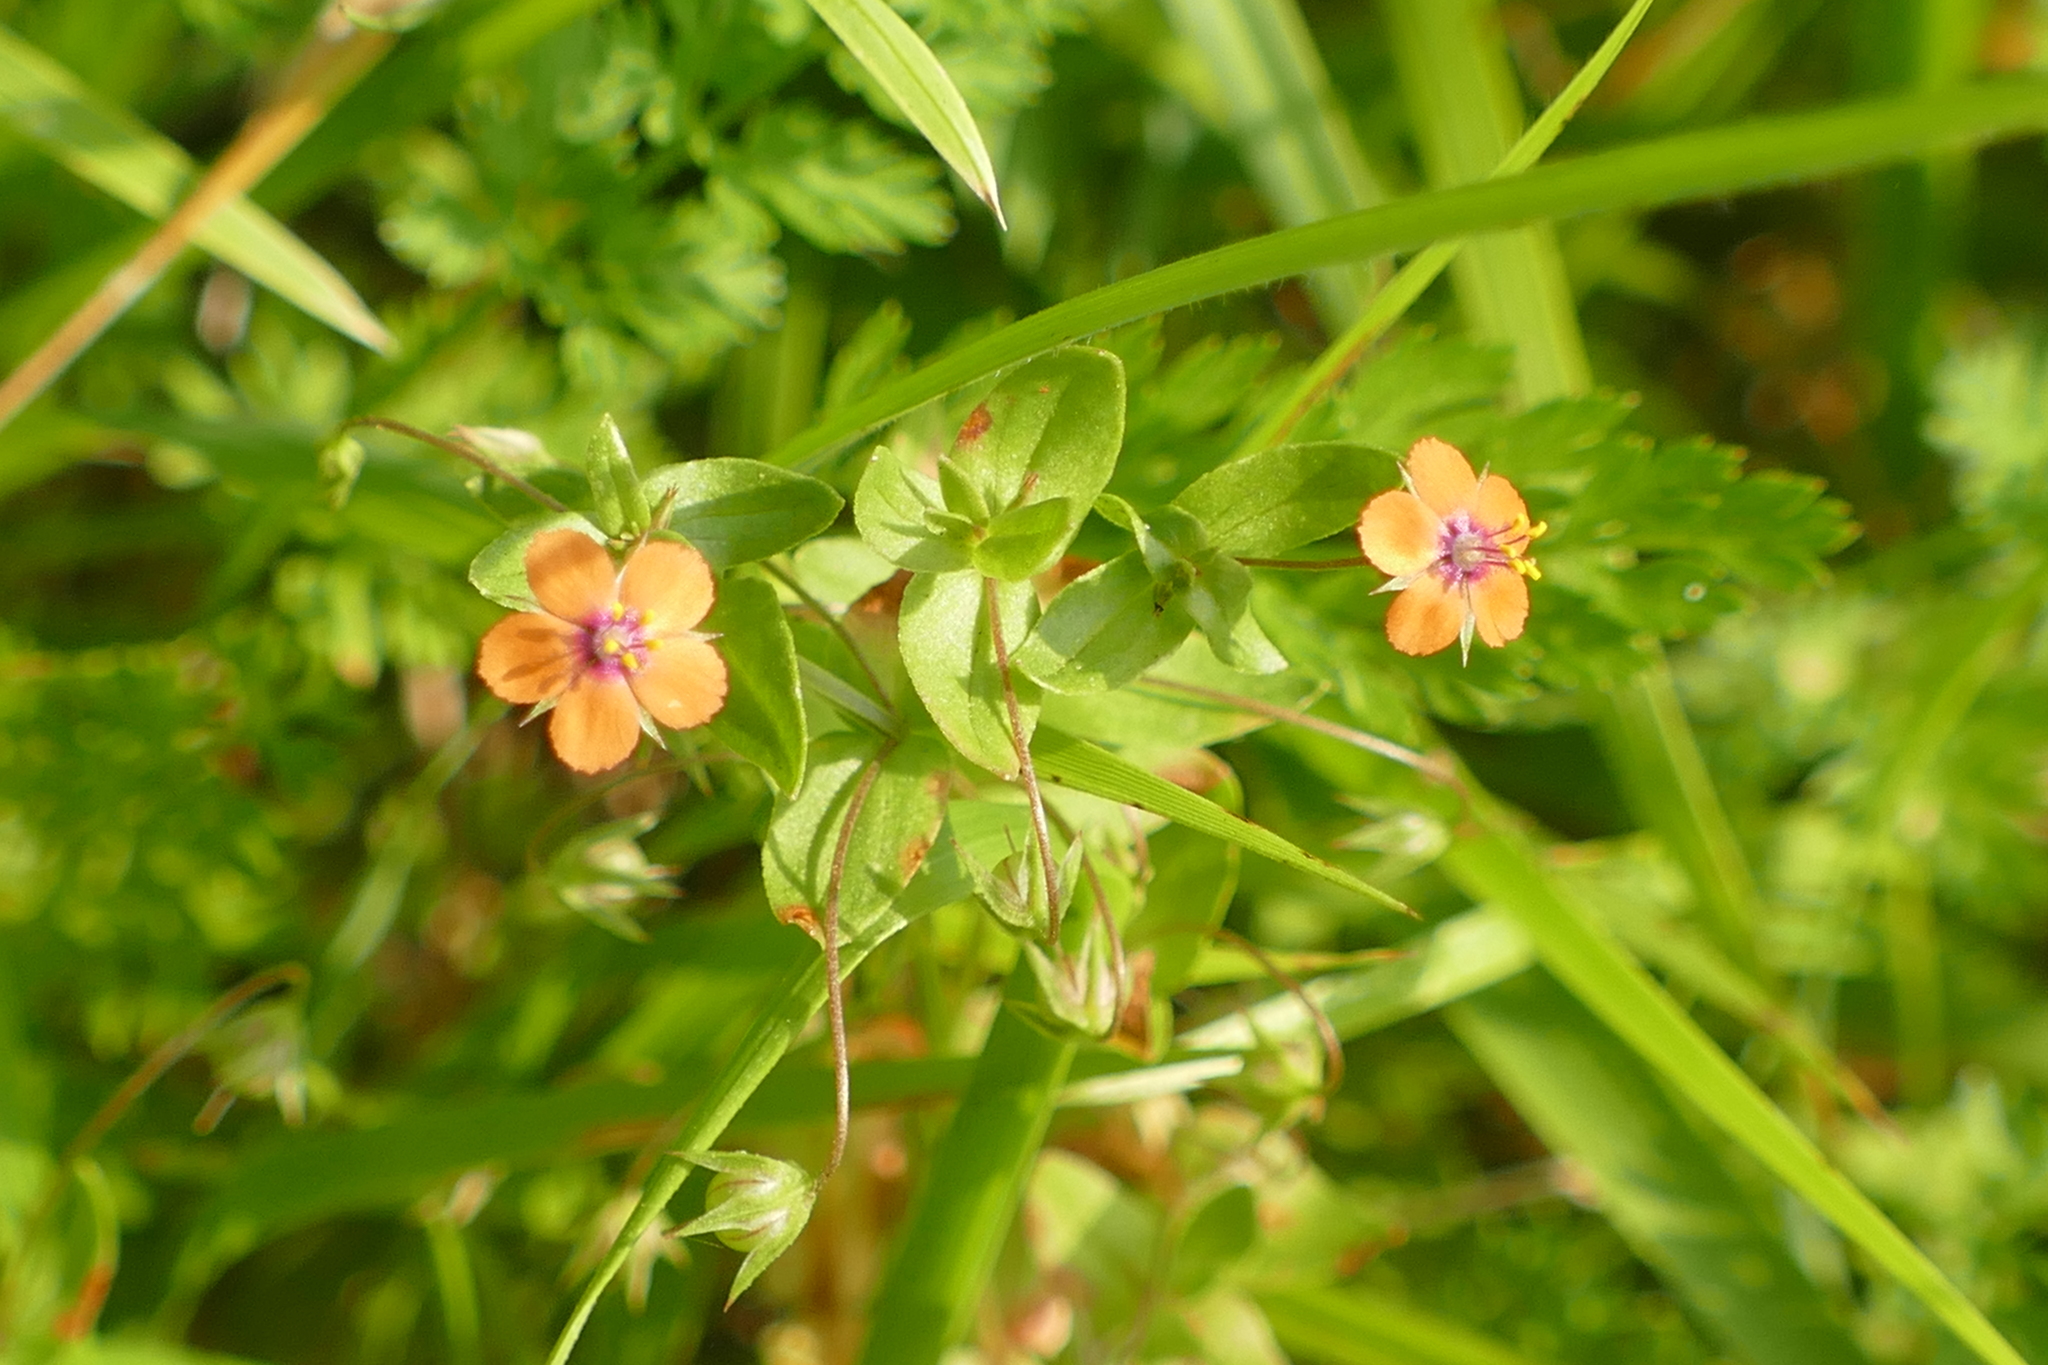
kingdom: Plantae
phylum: Tracheophyta
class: Magnoliopsida
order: Ericales
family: Primulaceae
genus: Lysimachia
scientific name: Lysimachia arvensis
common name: Scarlet pimpernel
